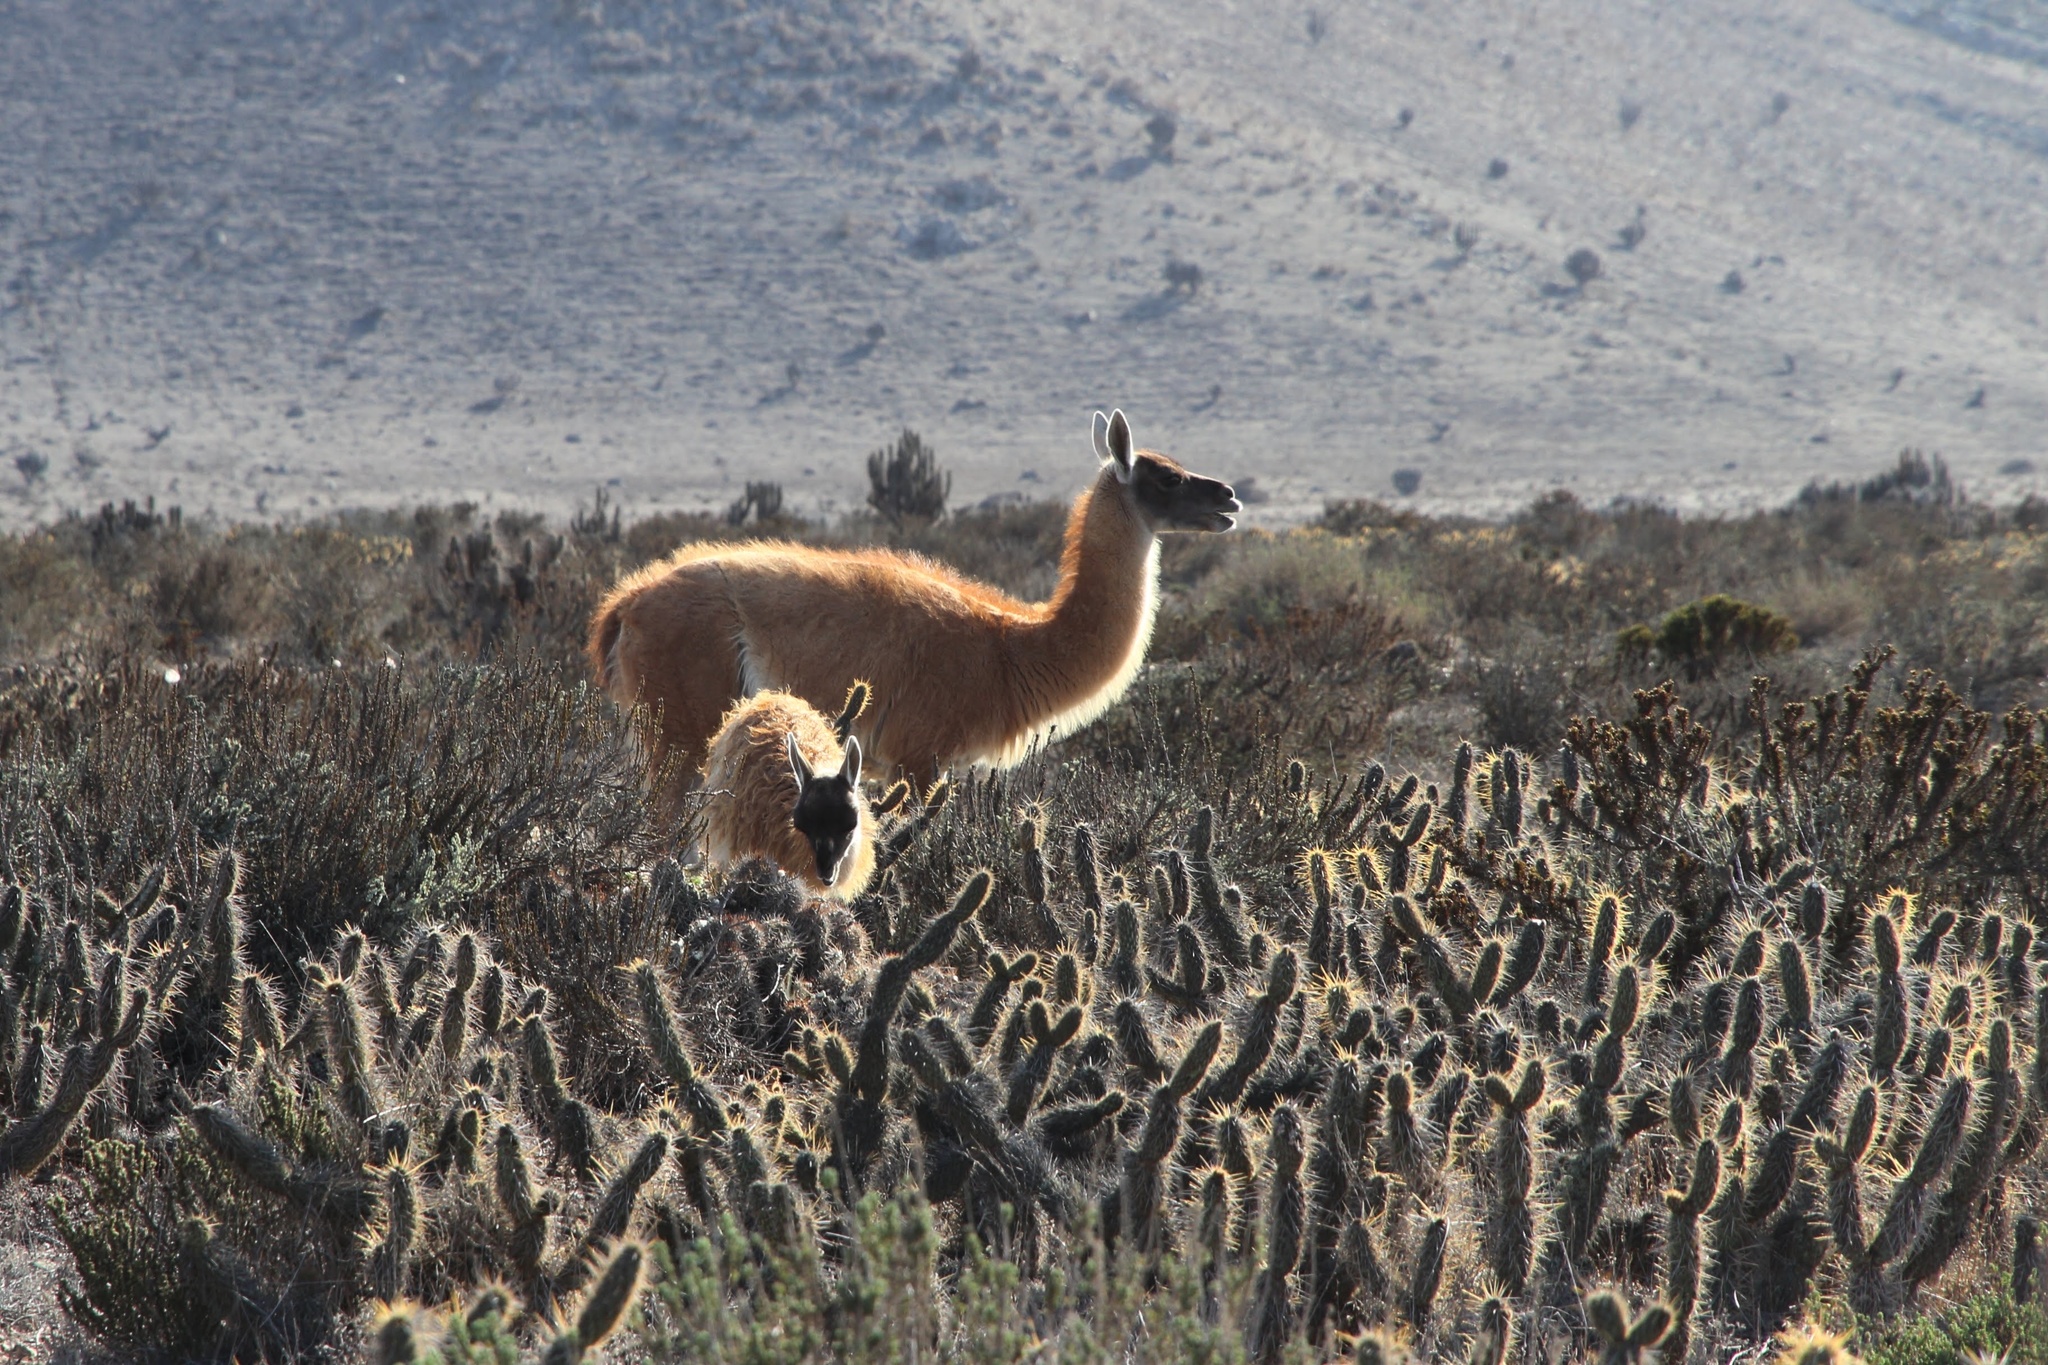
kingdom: Animalia
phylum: Chordata
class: Mammalia
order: Artiodactyla
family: Camelidae
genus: Lama
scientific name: Lama glama
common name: Llama
